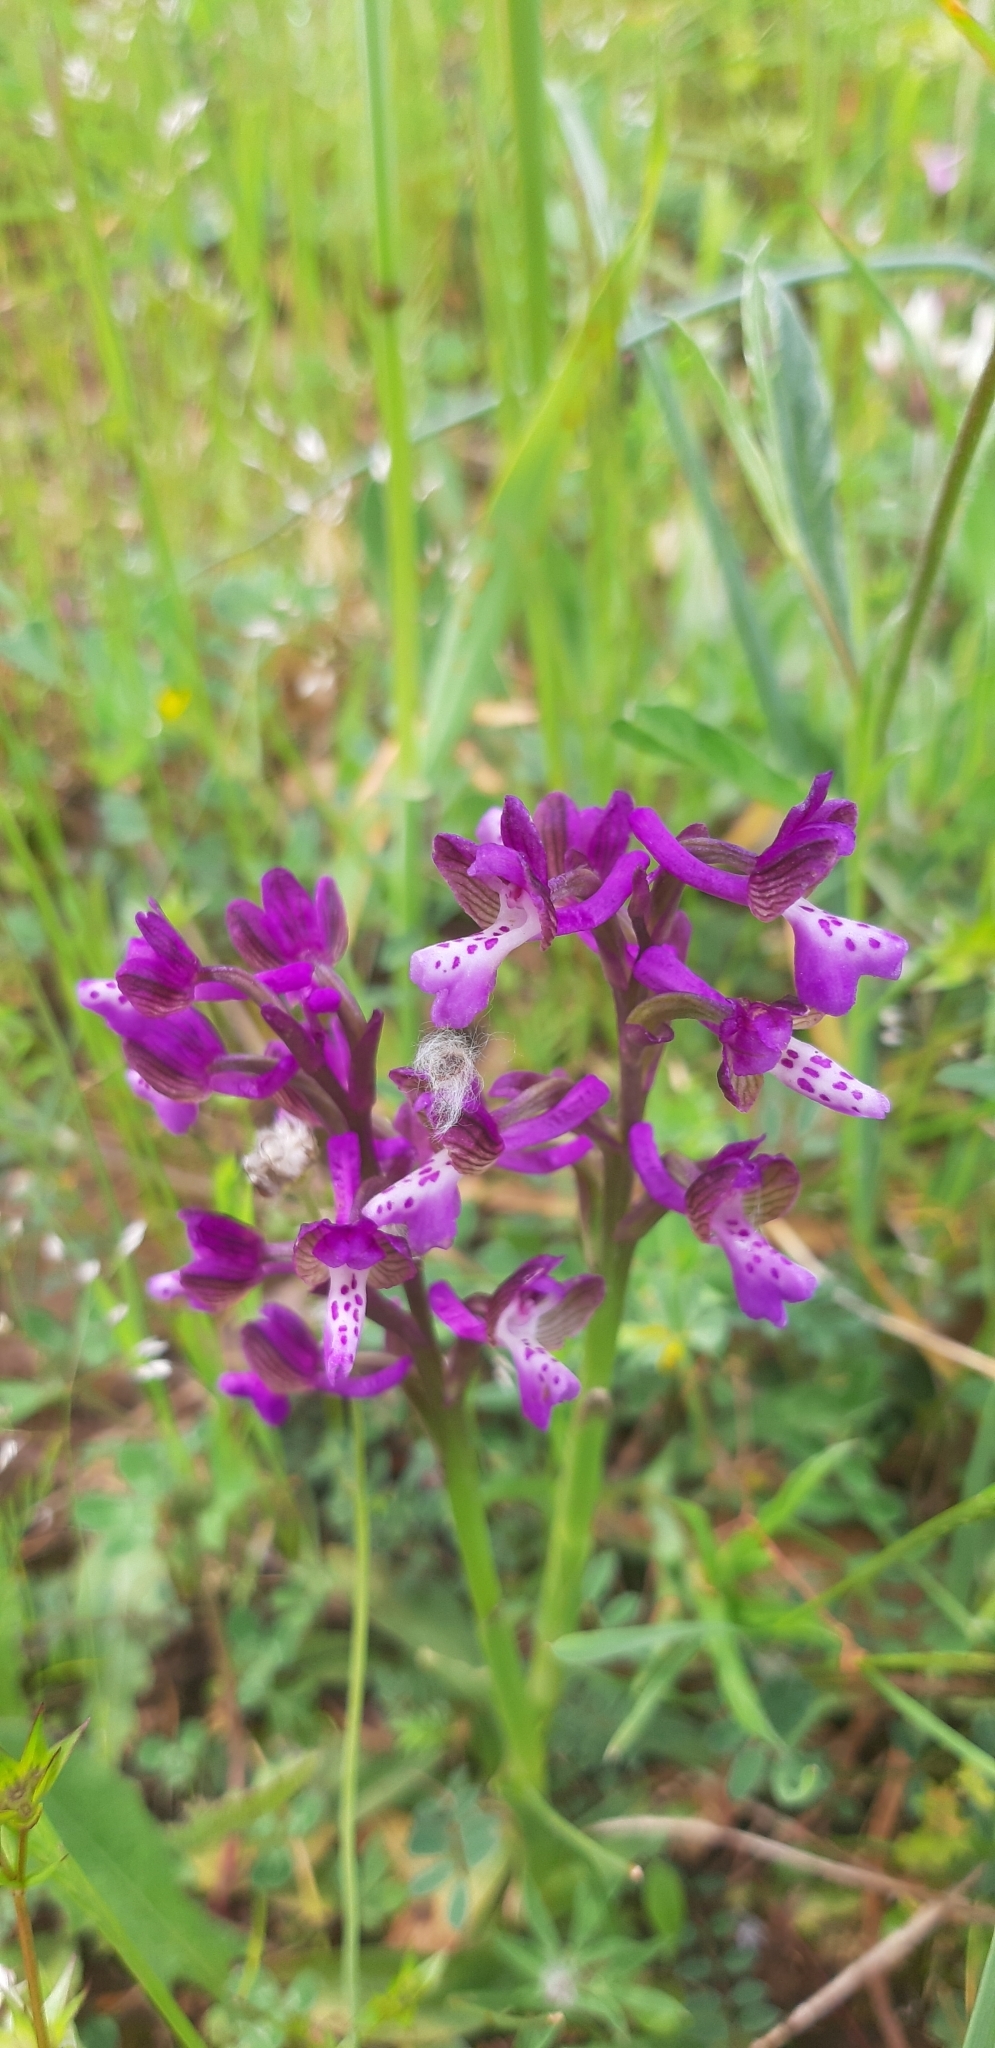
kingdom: Plantae
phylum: Tracheophyta
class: Liliopsida
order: Asparagales
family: Orchidaceae
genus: Anacamptis
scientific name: Anacamptis morio
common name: Green-winged orchid
